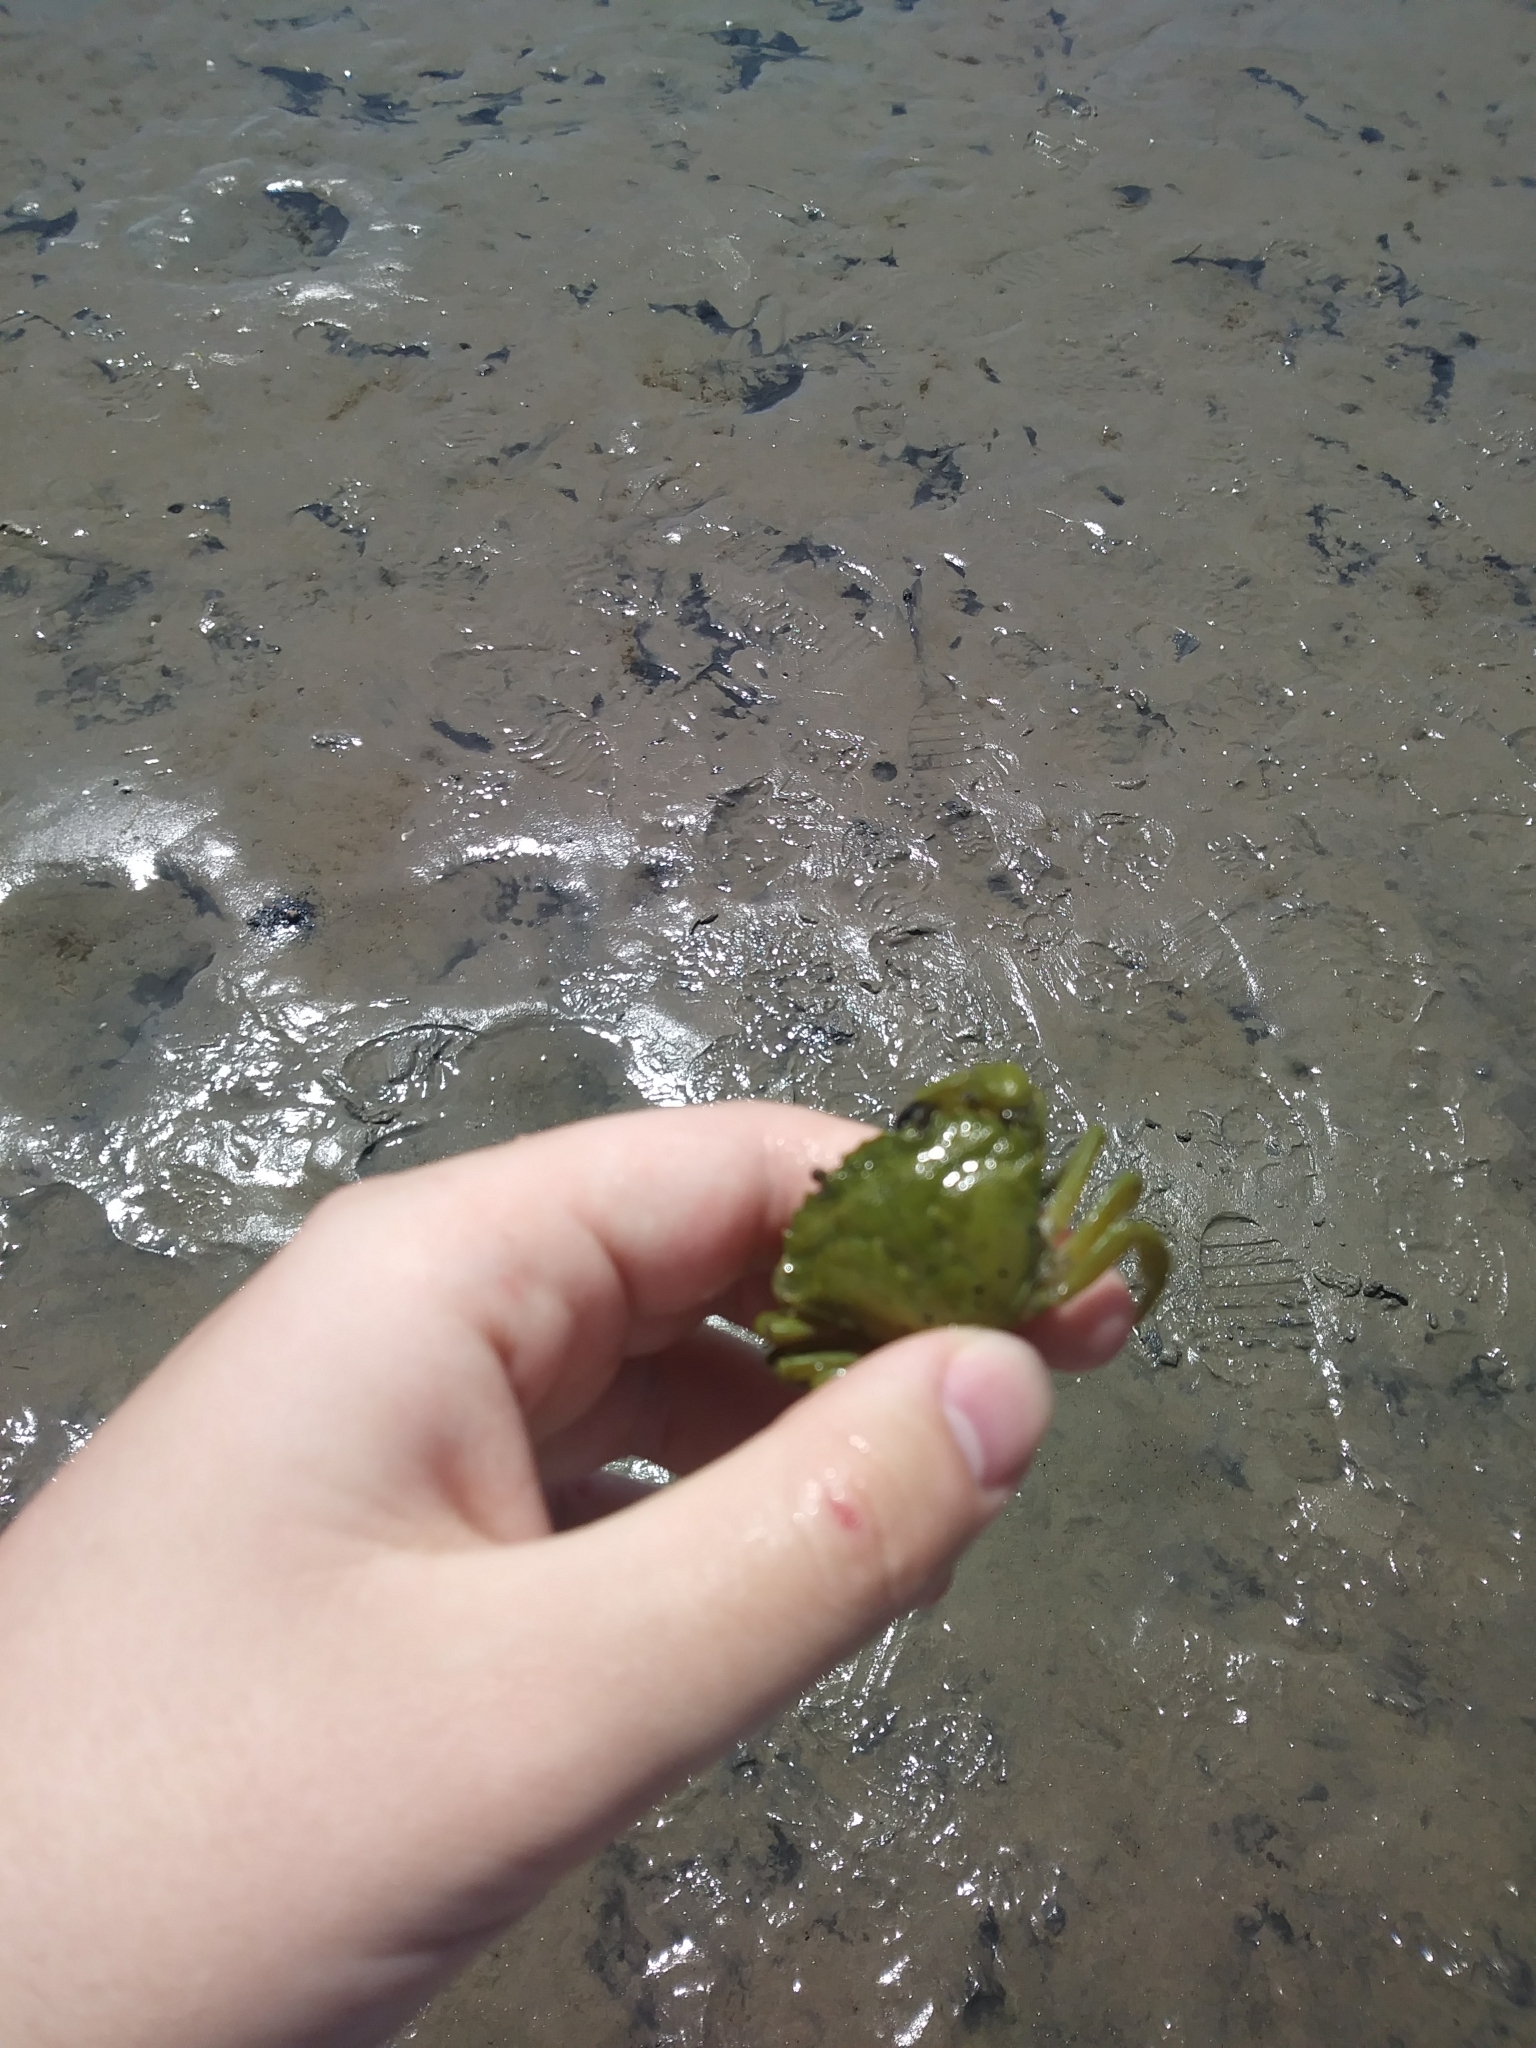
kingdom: Animalia
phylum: Arthropoda
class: Malacostraca
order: Decapoda
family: Carcinidae
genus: Carcinus
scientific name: Carcinus maenas
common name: European green crab
